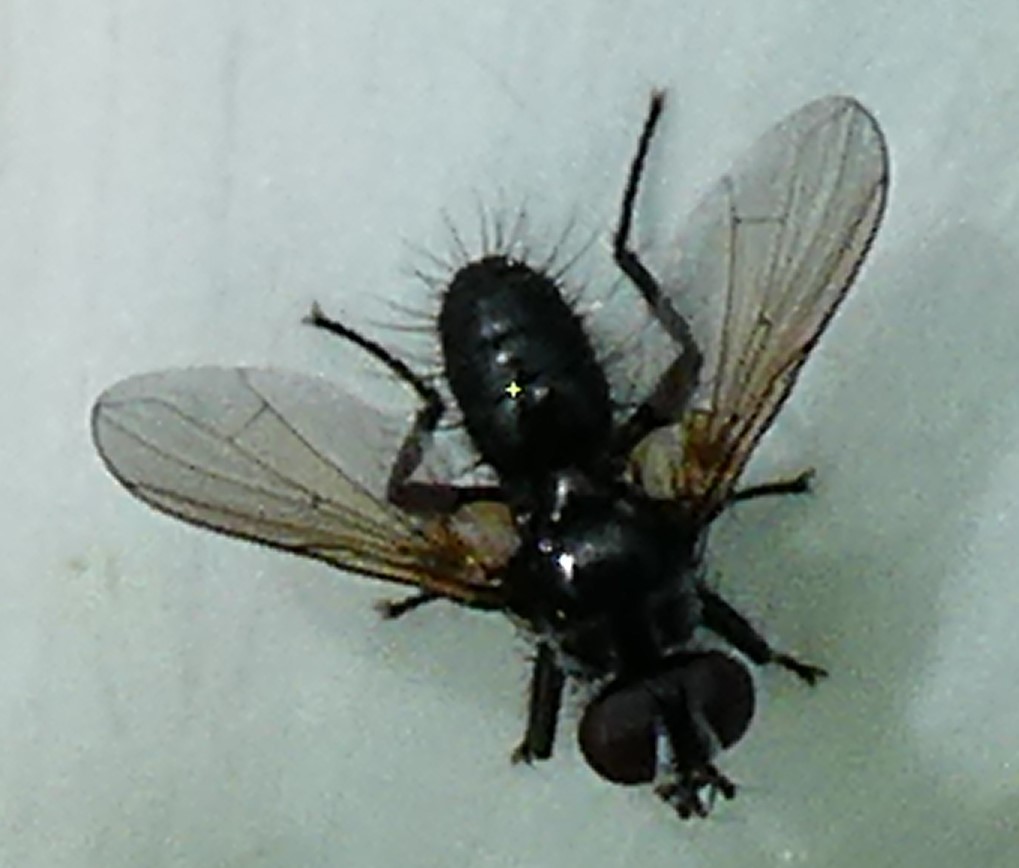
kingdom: Animalia
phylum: Arthropoda
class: Insecta
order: Diptera
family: Tachinidae
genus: Phania
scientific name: Phania funesta
